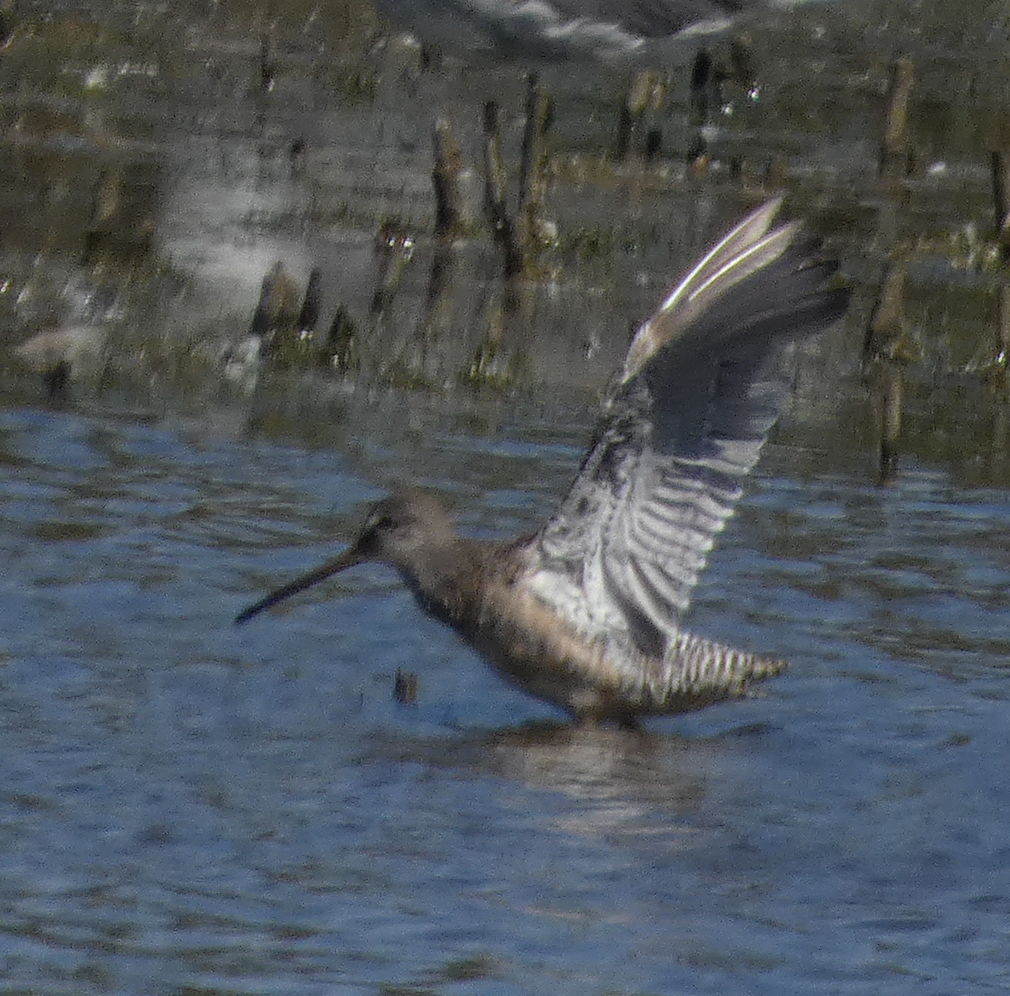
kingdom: Animalia
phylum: Chordata
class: Aves
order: Charadriiformes
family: Scolopacidae
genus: Limnodromus
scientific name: Limnodromus griseus
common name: Short-billed dowitcher
